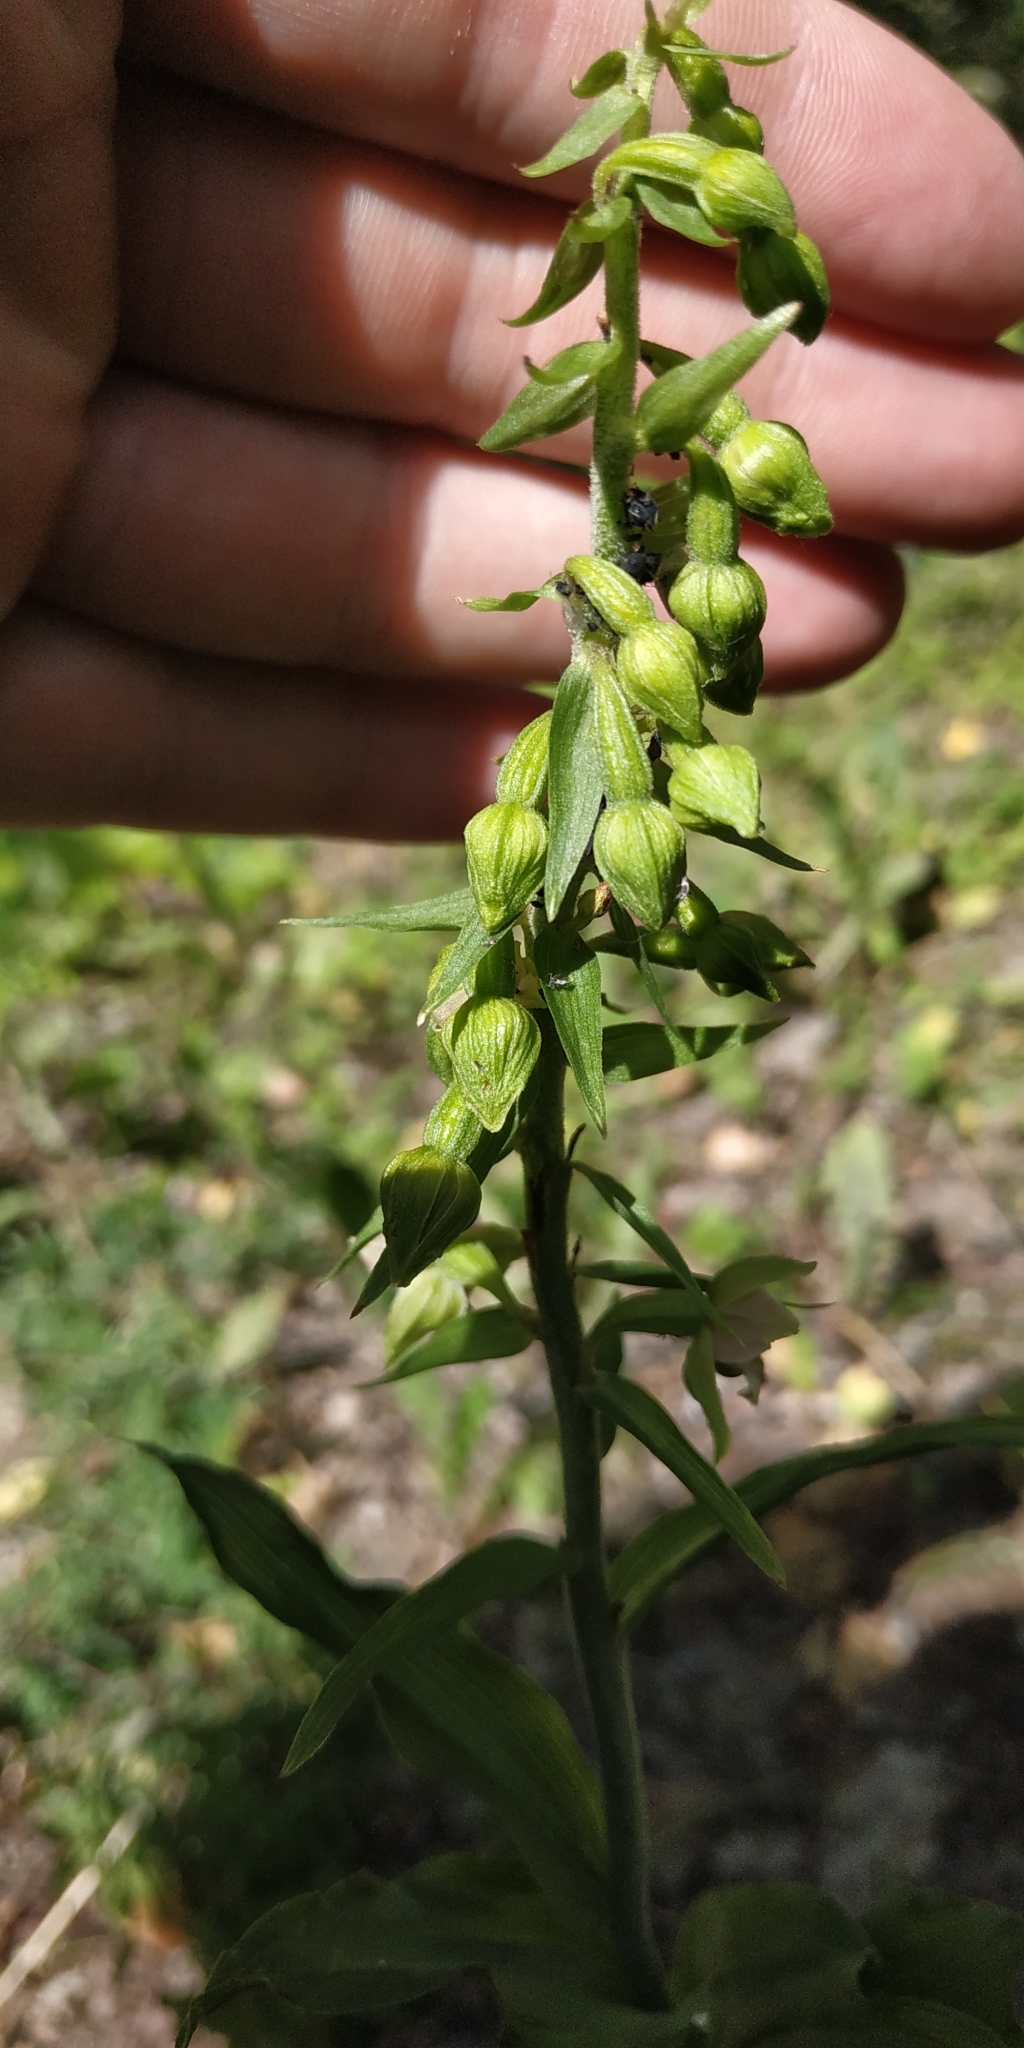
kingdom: Plantae
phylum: Tracheophyta
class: Liliopsida
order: Asparagales
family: Orchidaceae
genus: Epipactis
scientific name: Epipactis helleborine
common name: Broad-leaved helleborine
